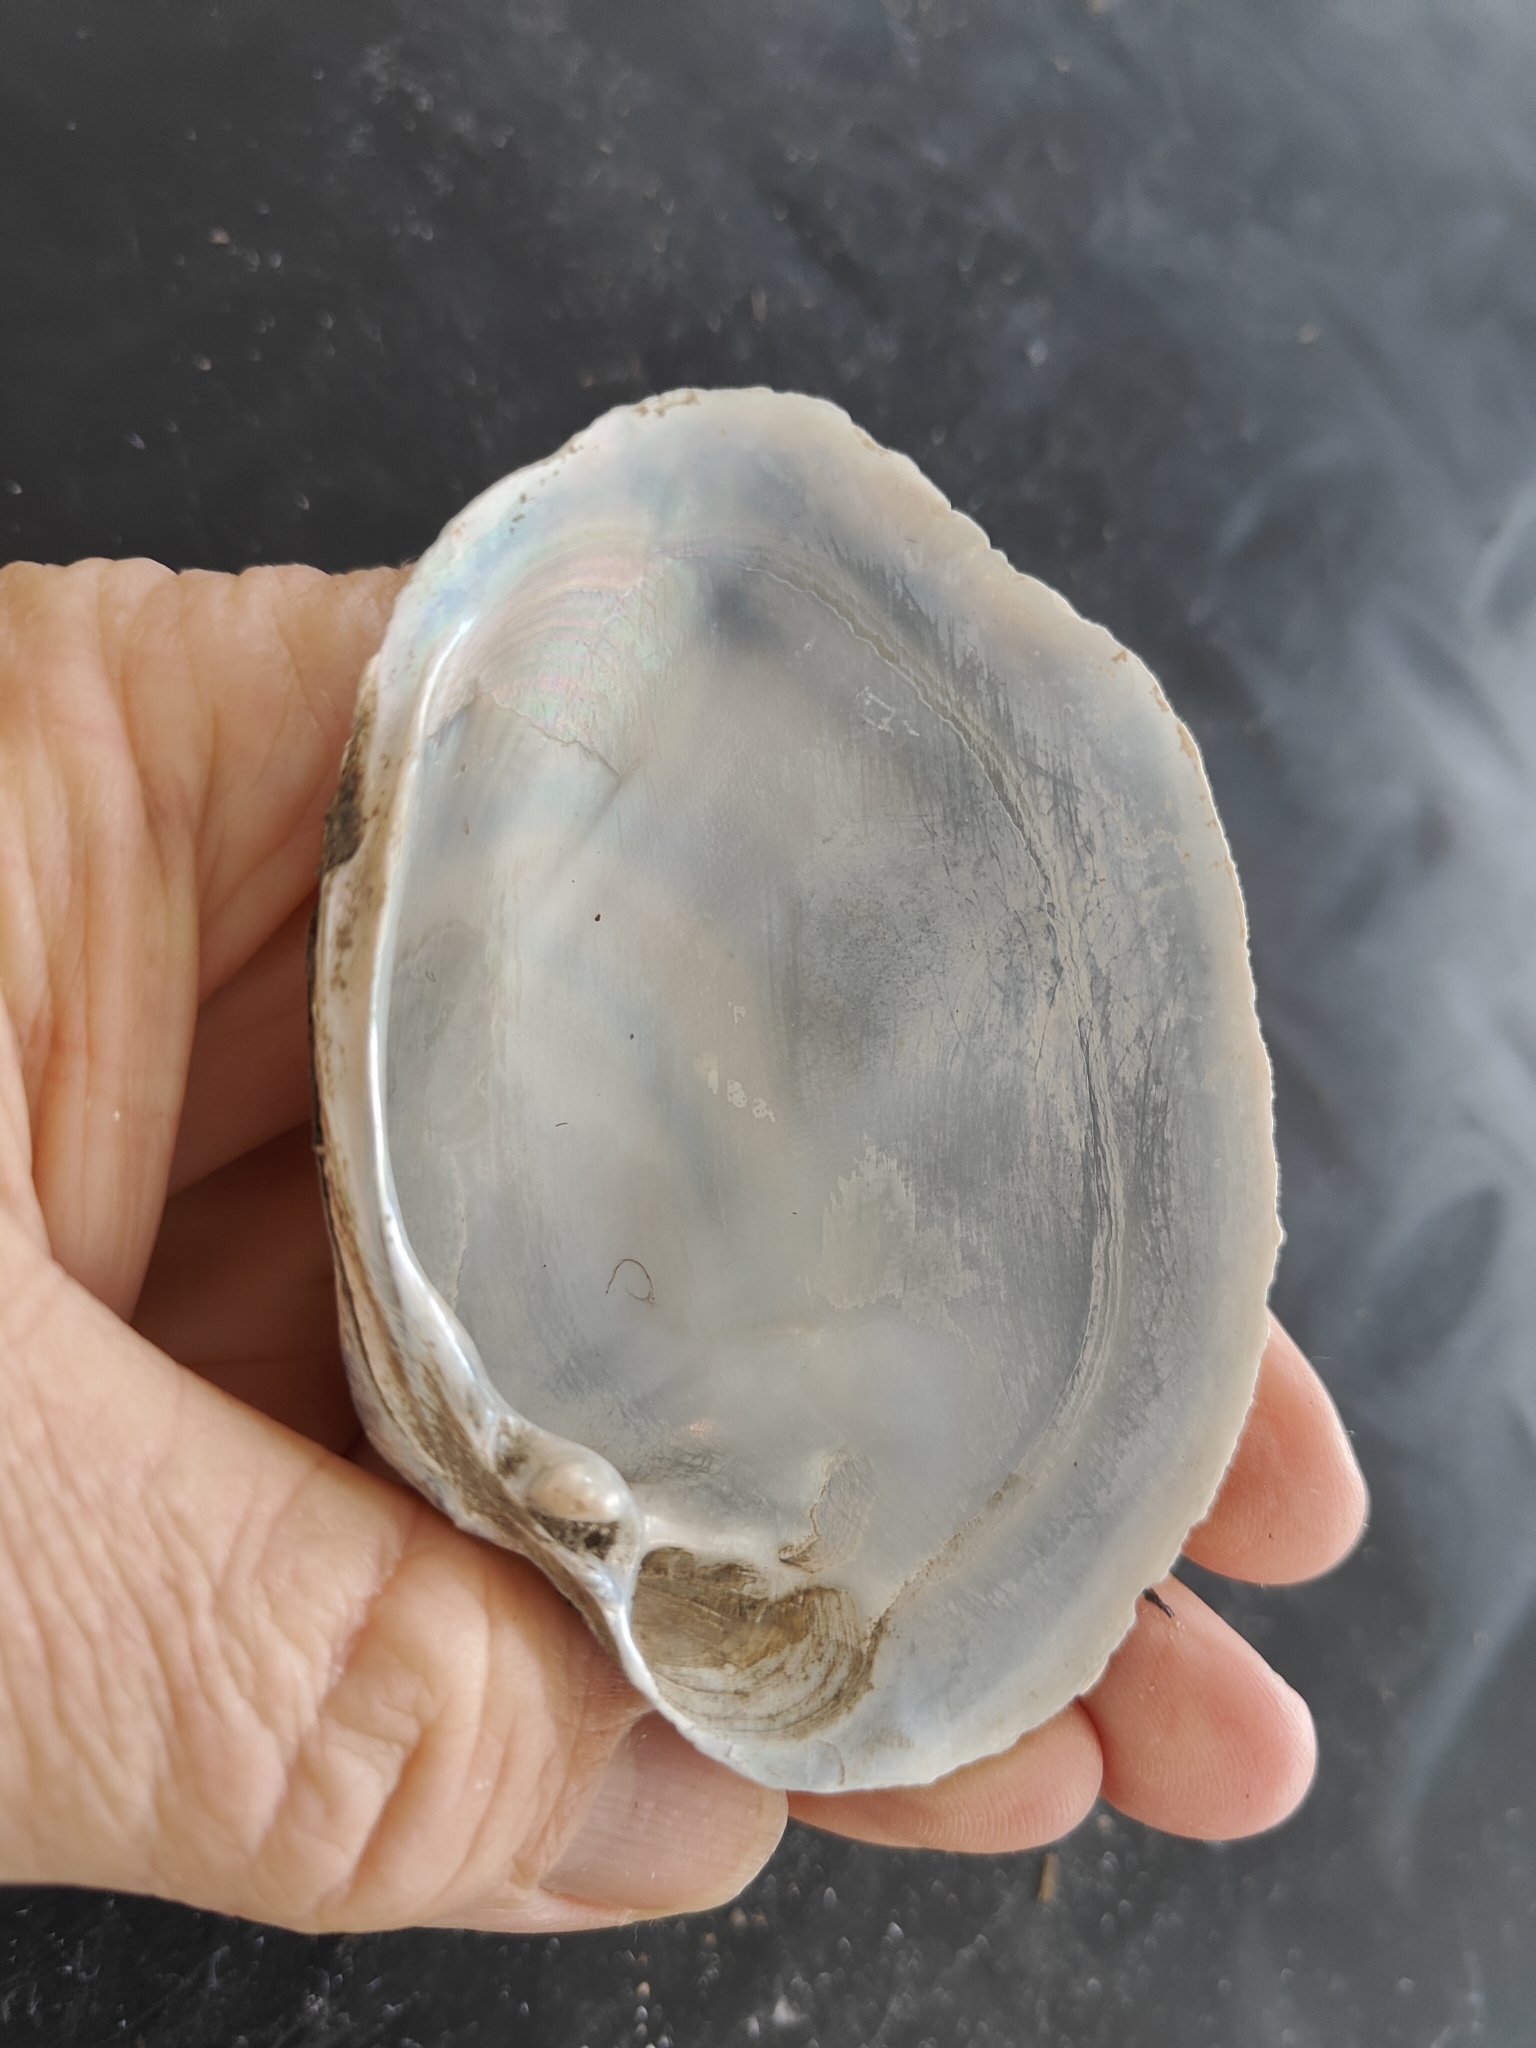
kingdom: Animalia
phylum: Mollusca
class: Bivalvia
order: Unionida
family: Unionidae
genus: Lampsilis
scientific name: Lampsilis cardium
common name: Plain pocketbook
